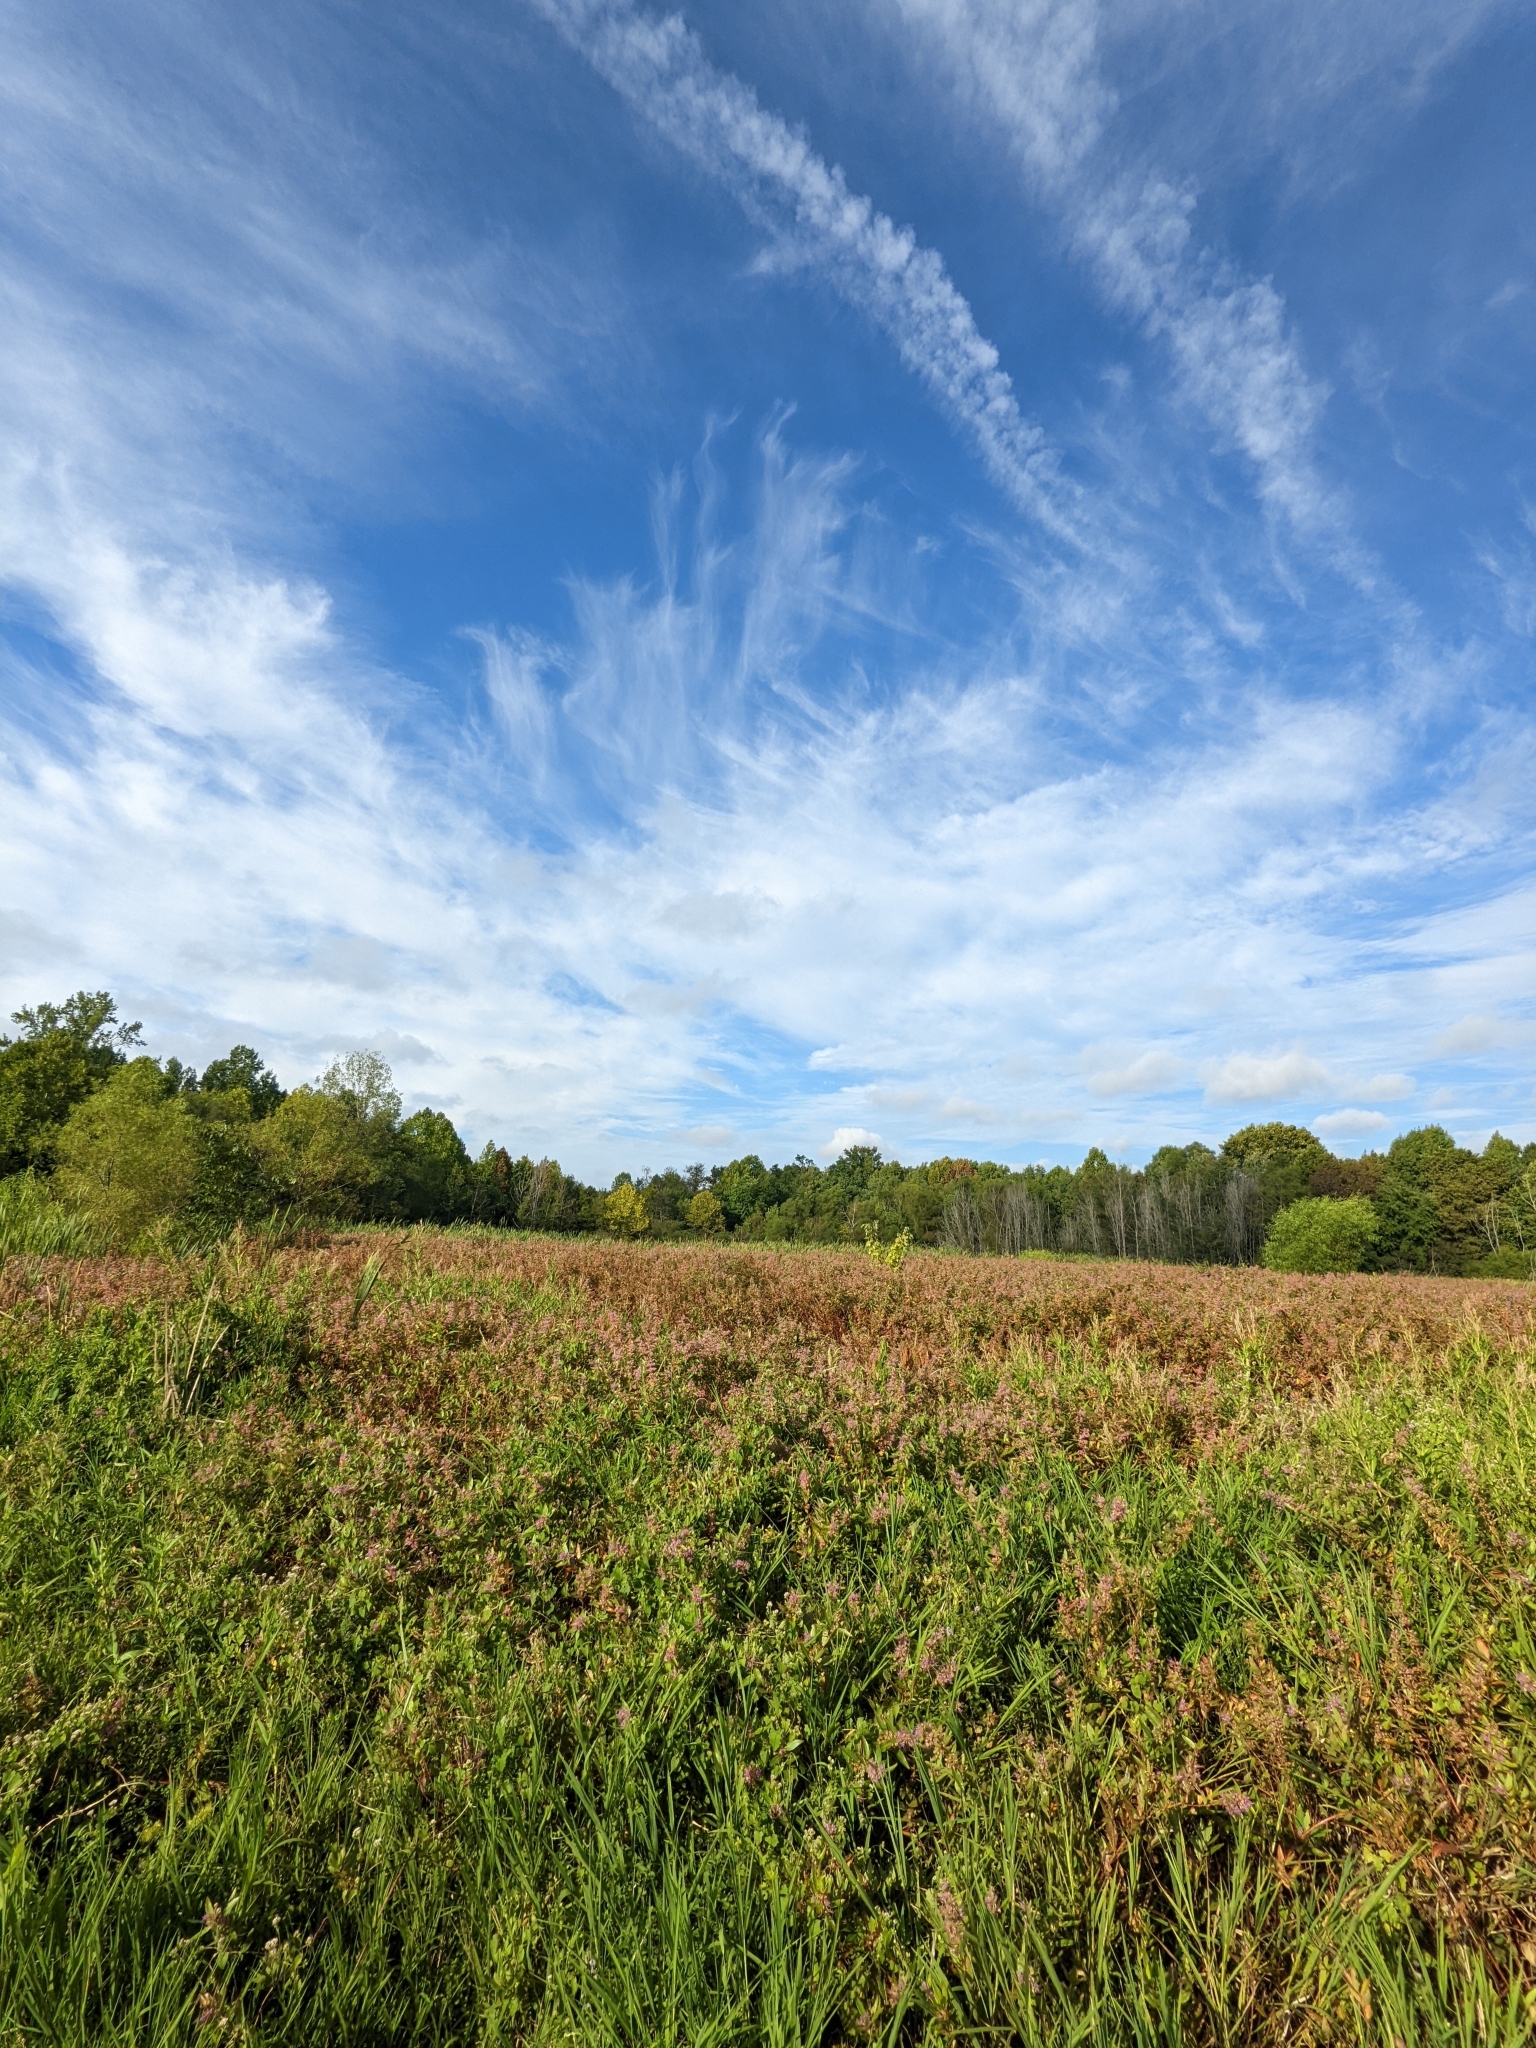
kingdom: Plantae
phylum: Tracheophyta
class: Magnoliopsida
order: Myrtales
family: Lythraceae
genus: Decodon
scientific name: Decodon verticillatus
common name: Hairy swamp loosestrife
